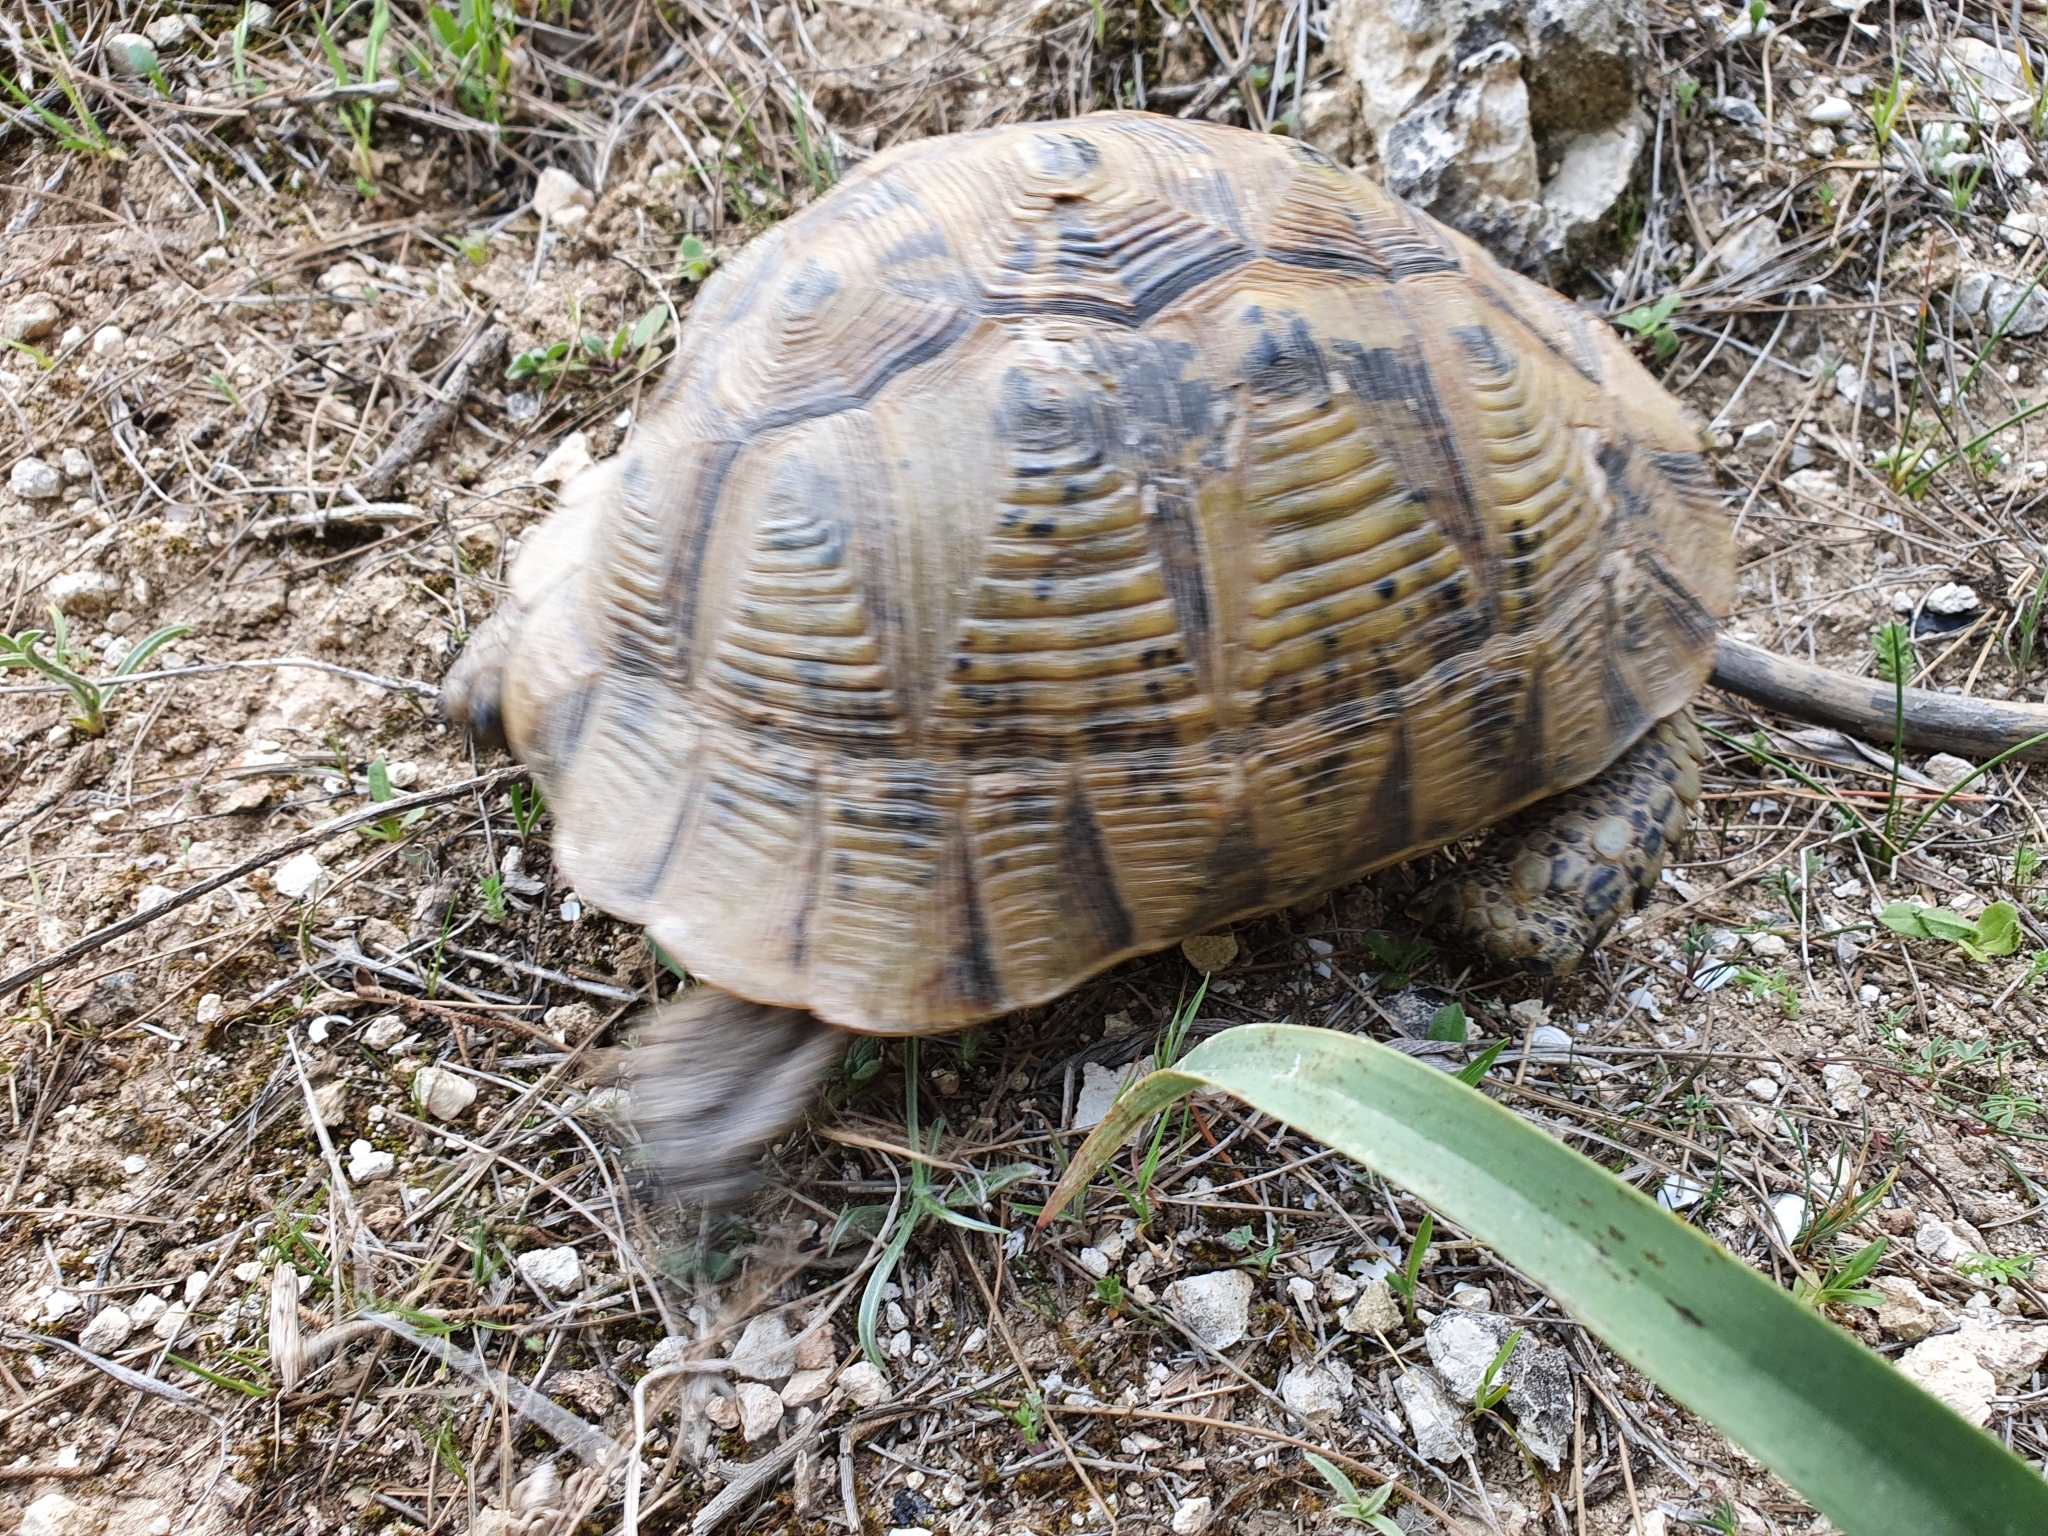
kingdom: Animalia
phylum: Chordata
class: Testudines
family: Testudinidae
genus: Testudo
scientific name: Testudo graeca
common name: Common tortoise
